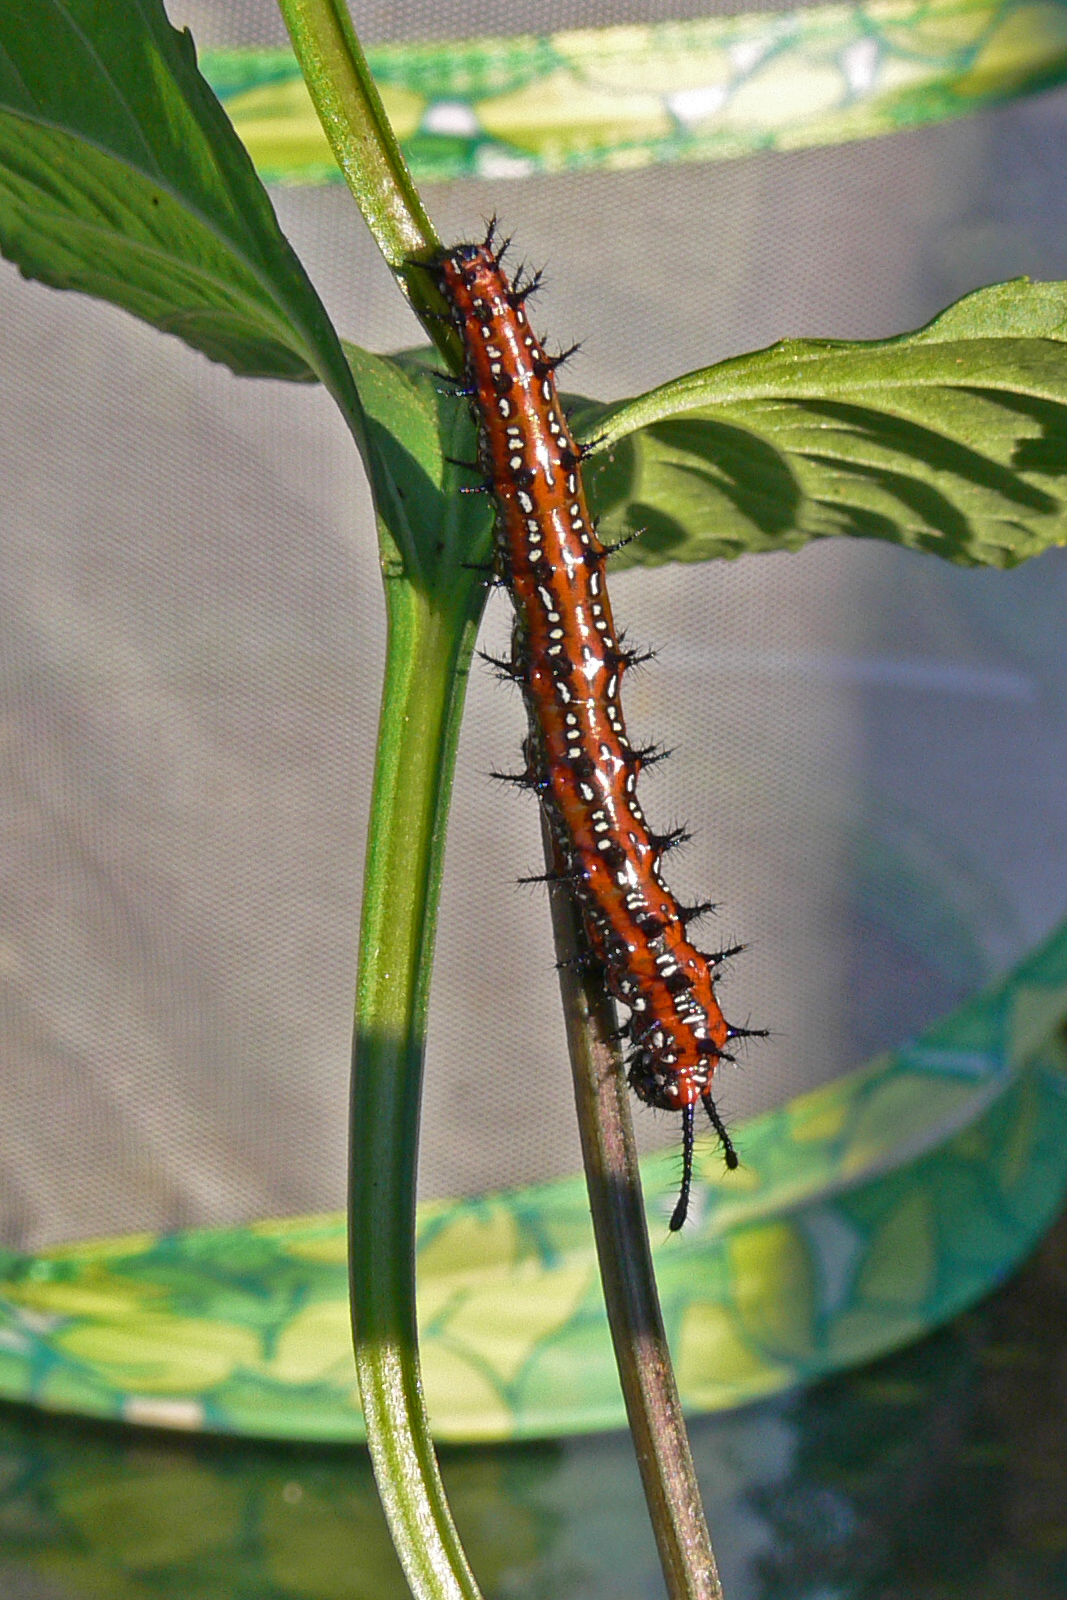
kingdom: Animalia
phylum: Arthropoda
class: Insecta
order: Lepidoptera
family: Nymphalidae
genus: Euptoieta
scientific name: Euptoieta claudia
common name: Variegated fritillary
